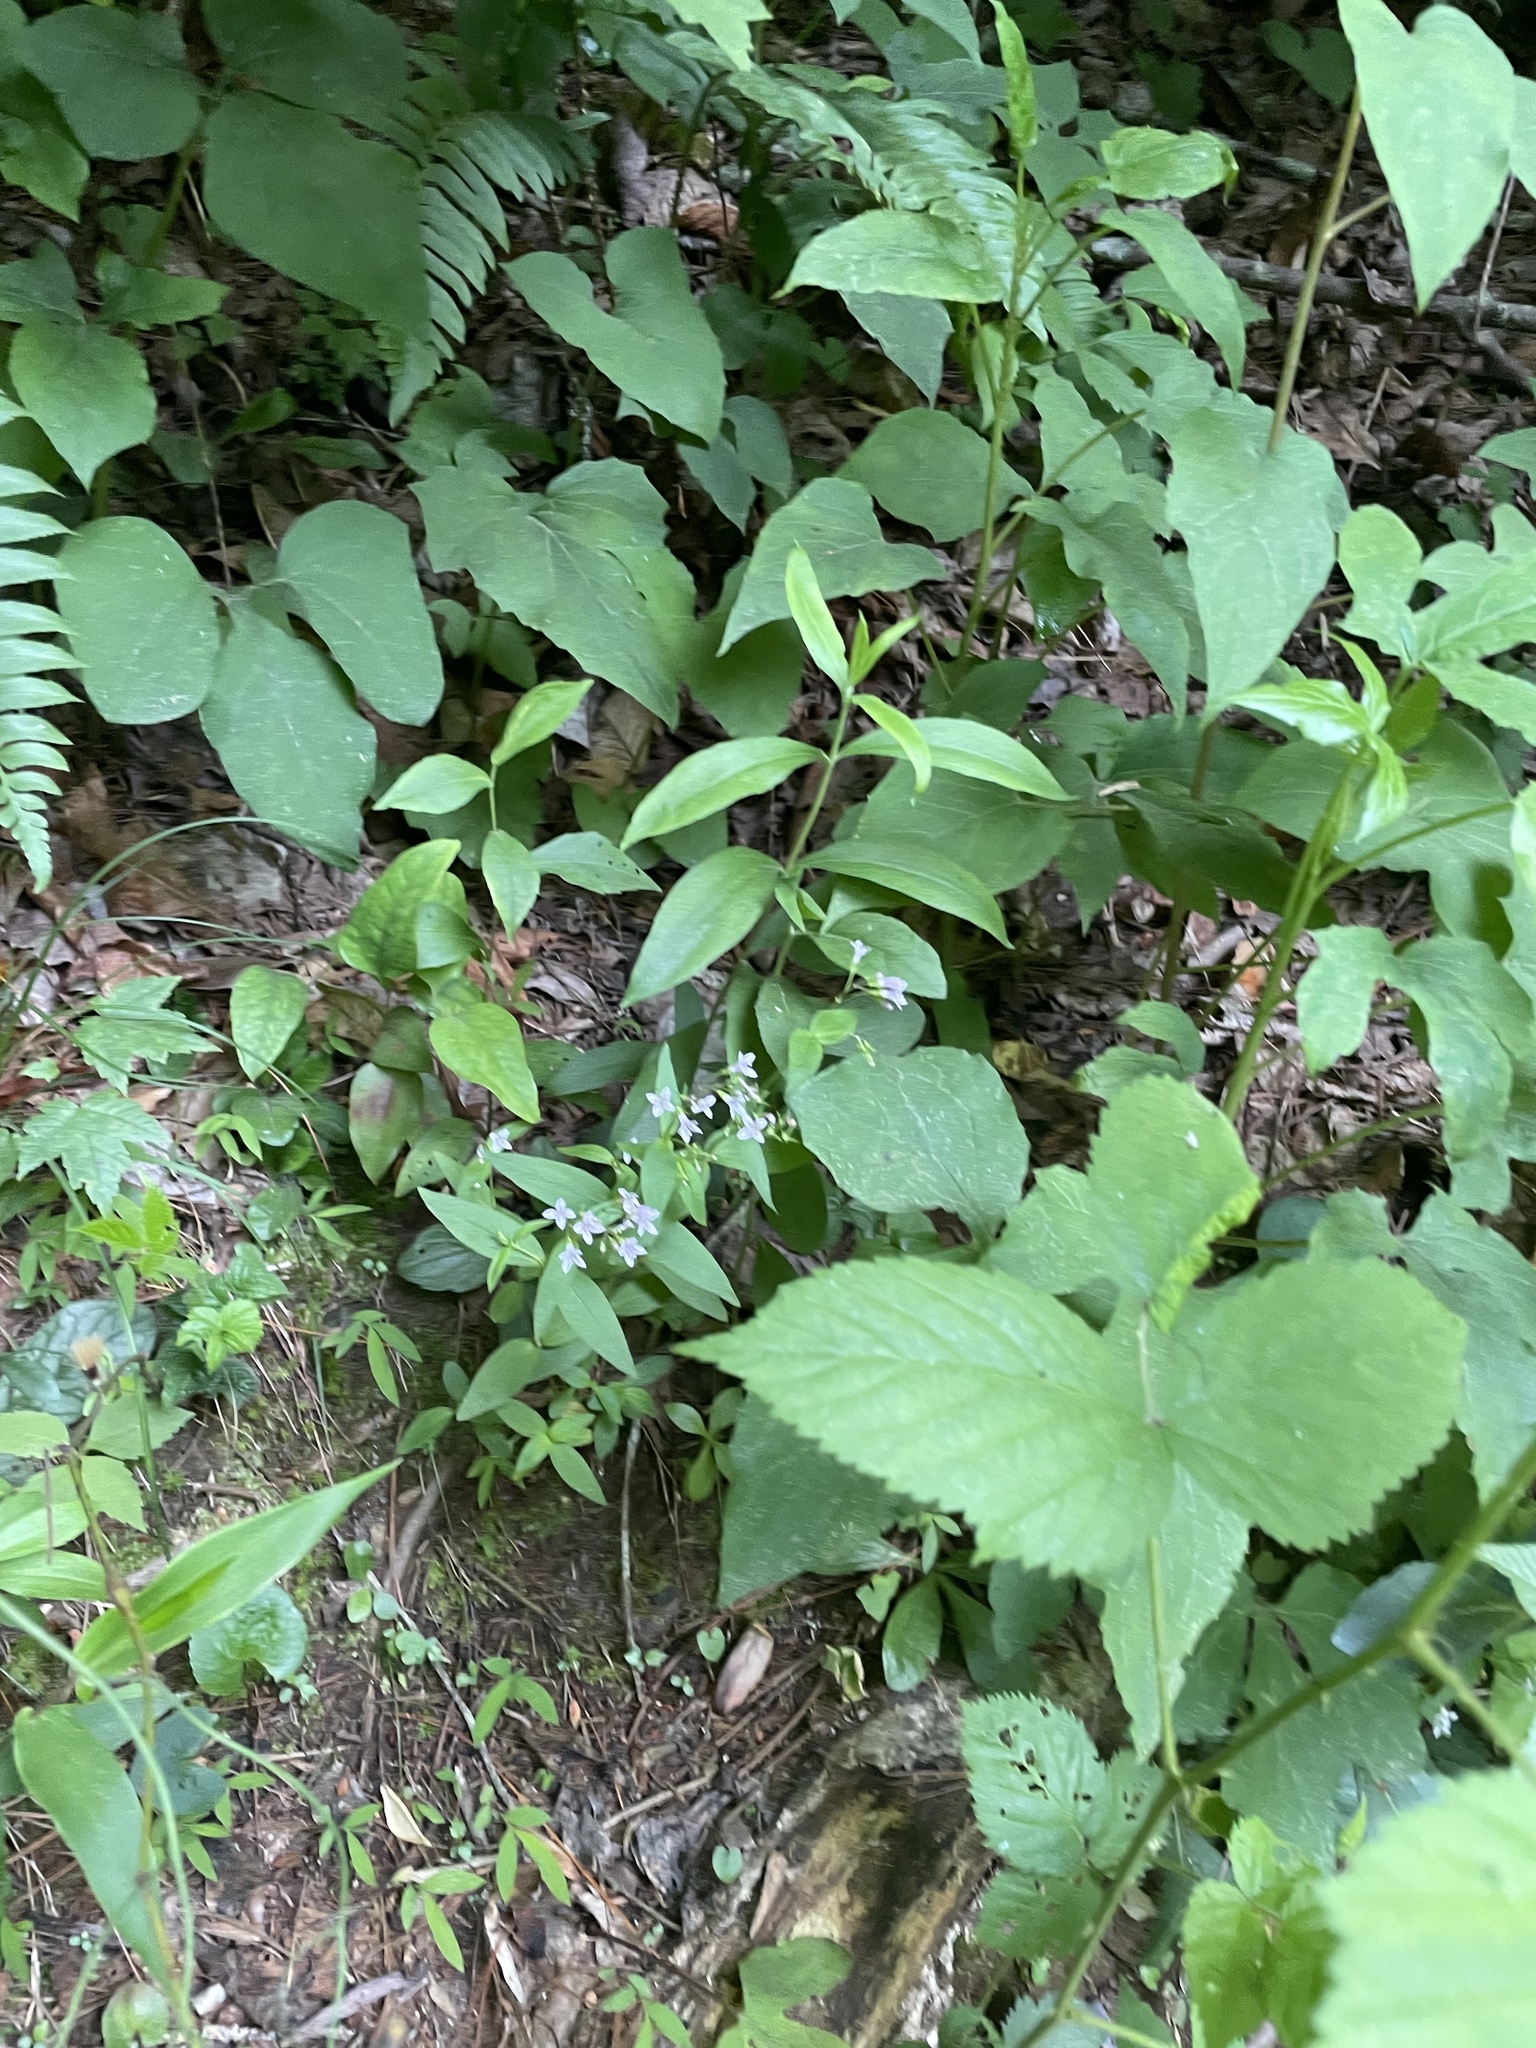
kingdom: Plantae
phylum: Tracheophyta
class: Magnoliopsida
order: Gentianales
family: Rubiaceae
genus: Houstonia
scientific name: Houstonia purpurea
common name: Summer bluet
